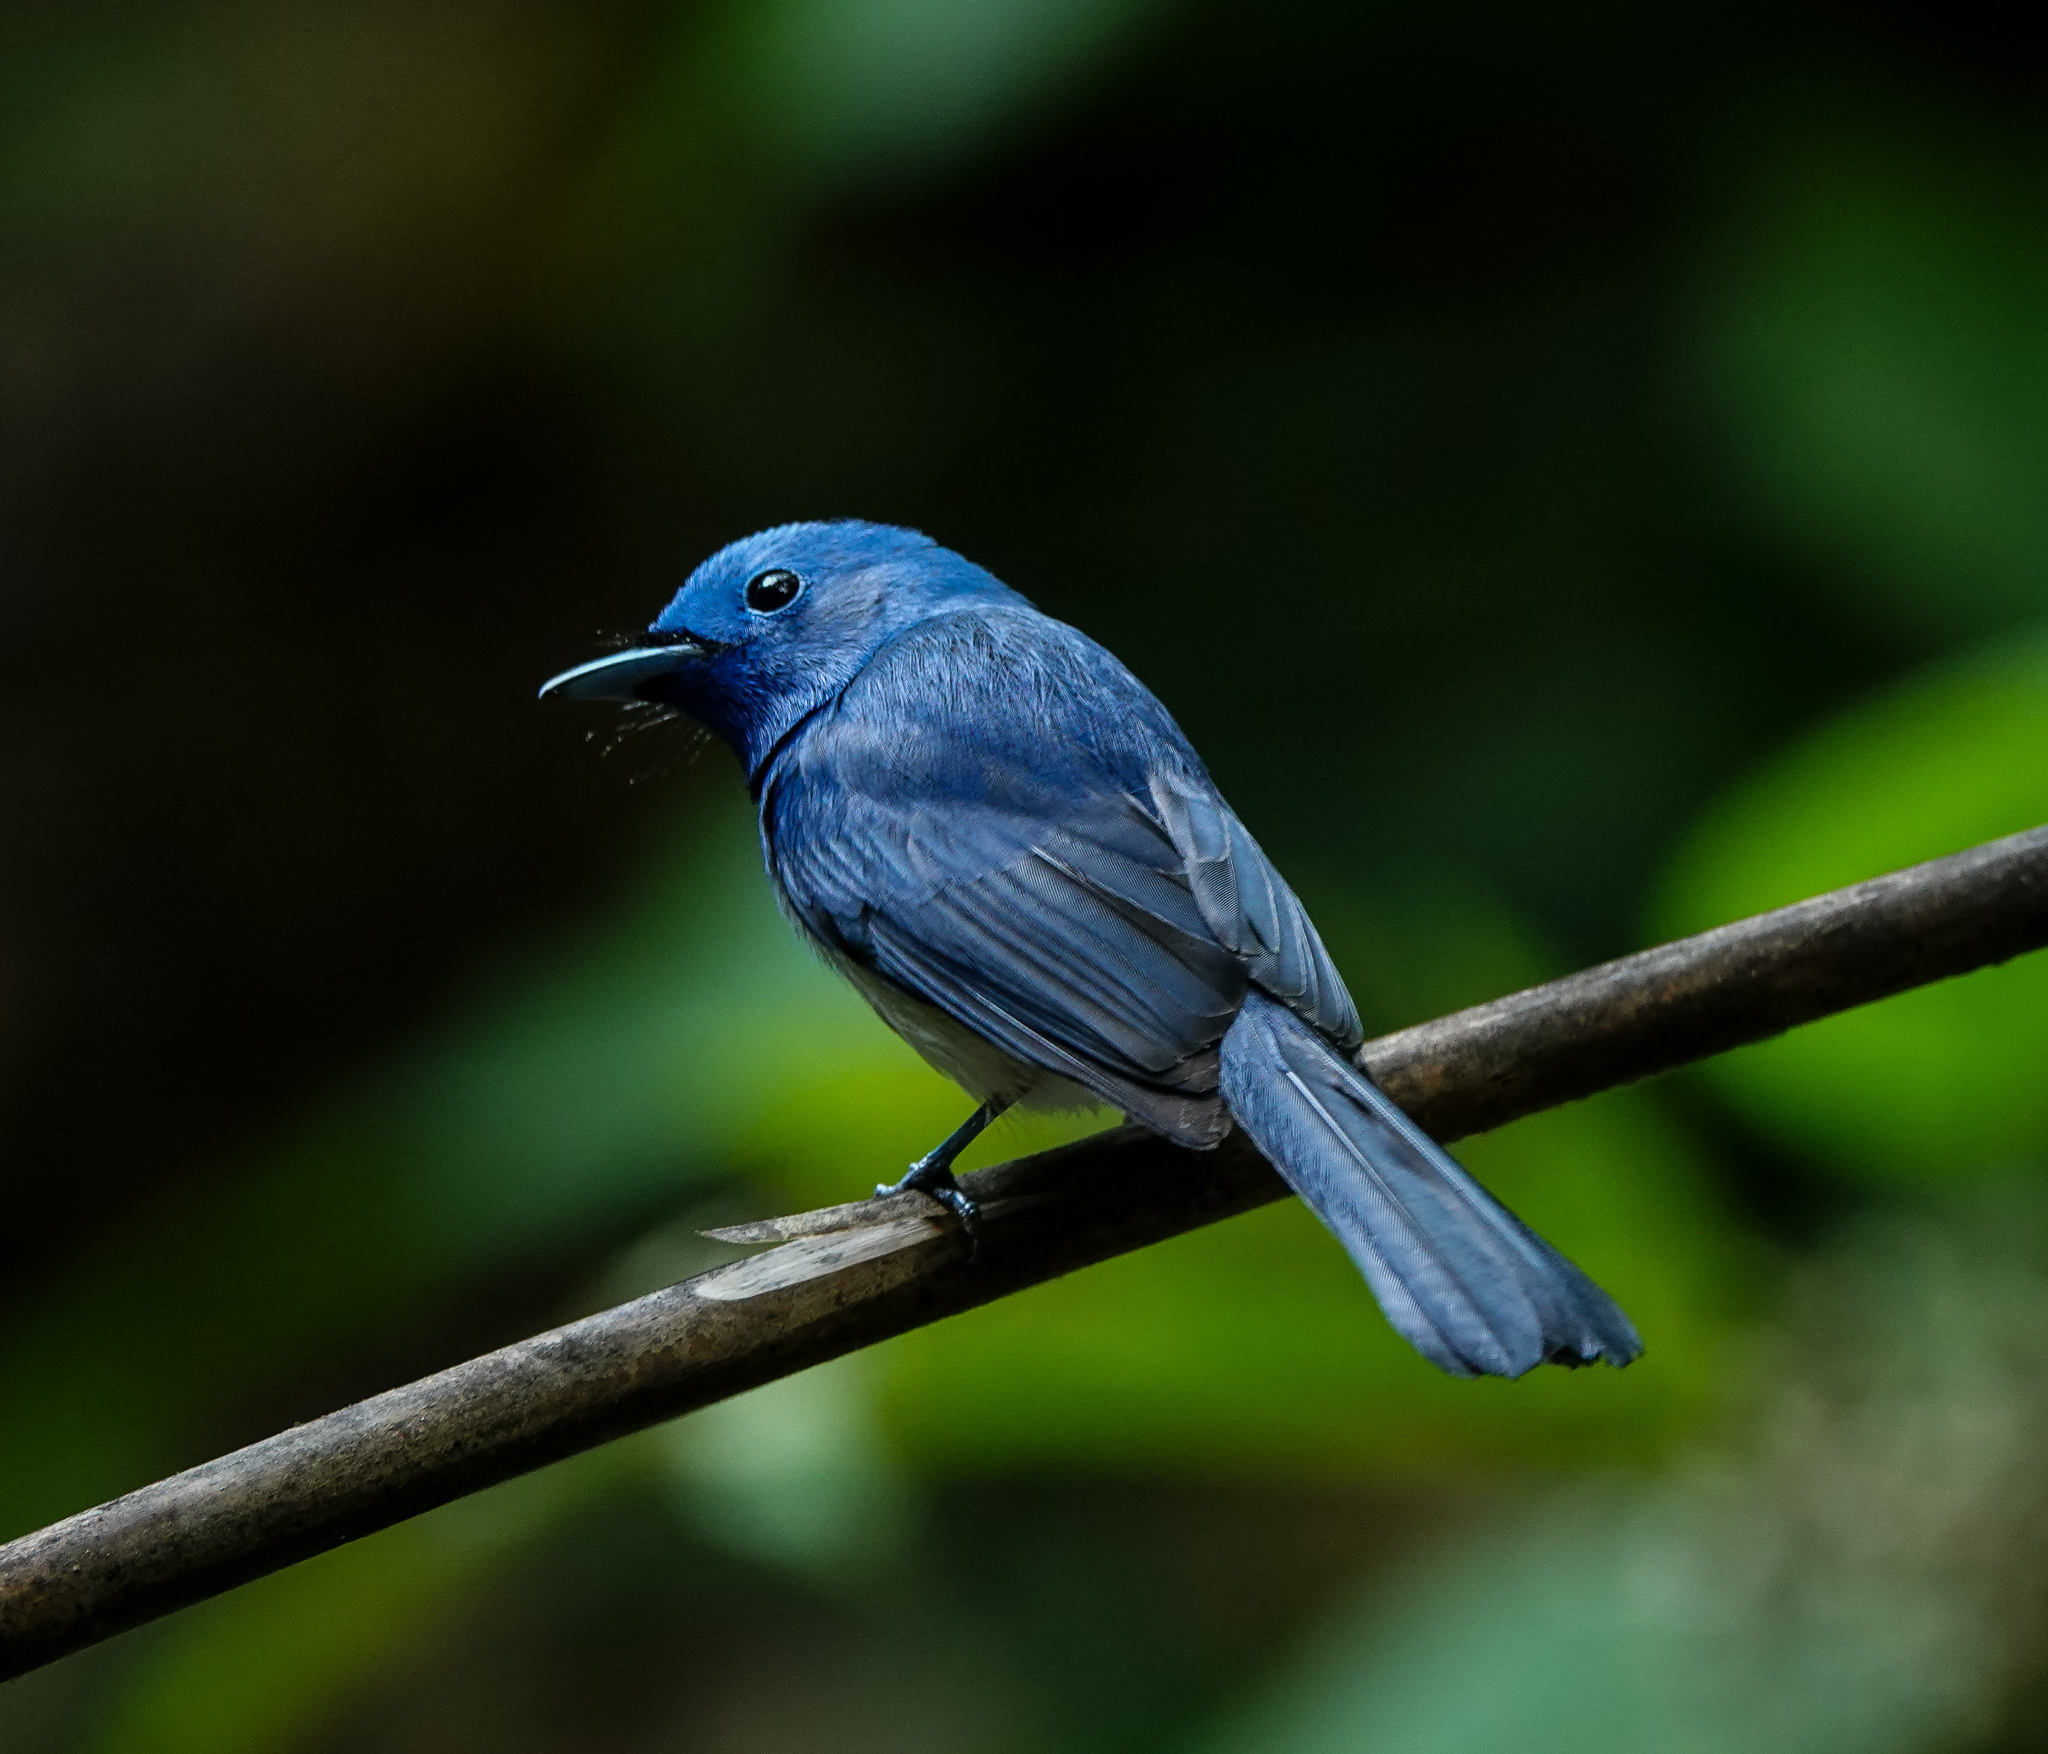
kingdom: Animalia
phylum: Chordata
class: Aves
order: Passeriformes
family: Monarchidae
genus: Hypothymis
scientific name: Hypothymis azurea
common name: Black-naped monarch
